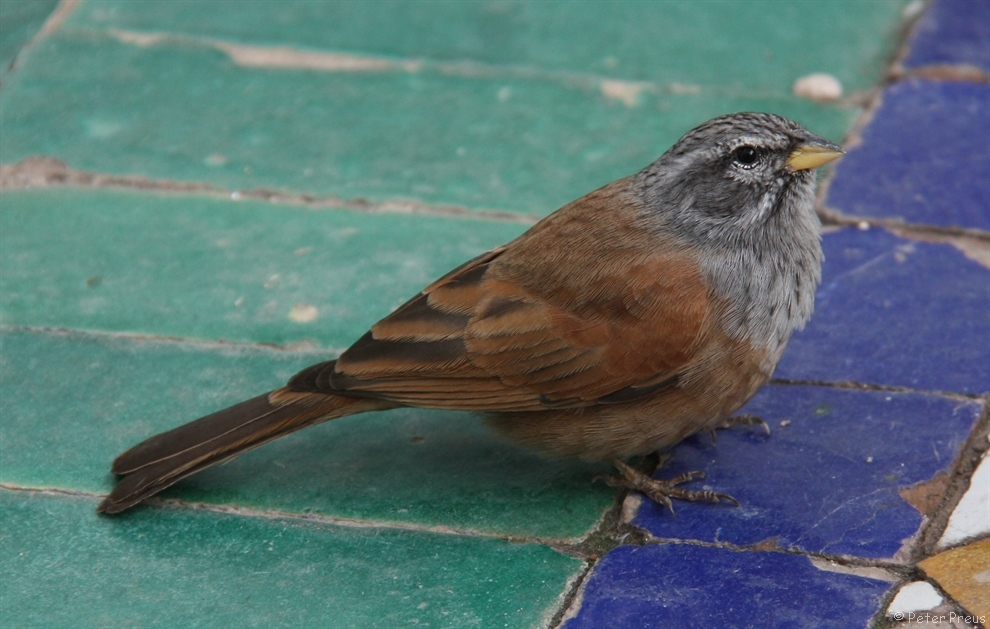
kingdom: Animalia
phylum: Chordata
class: Aves
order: Passeriformes
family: Emberizidae
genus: Emberiza
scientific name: Emberiza sahari
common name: House bunting
